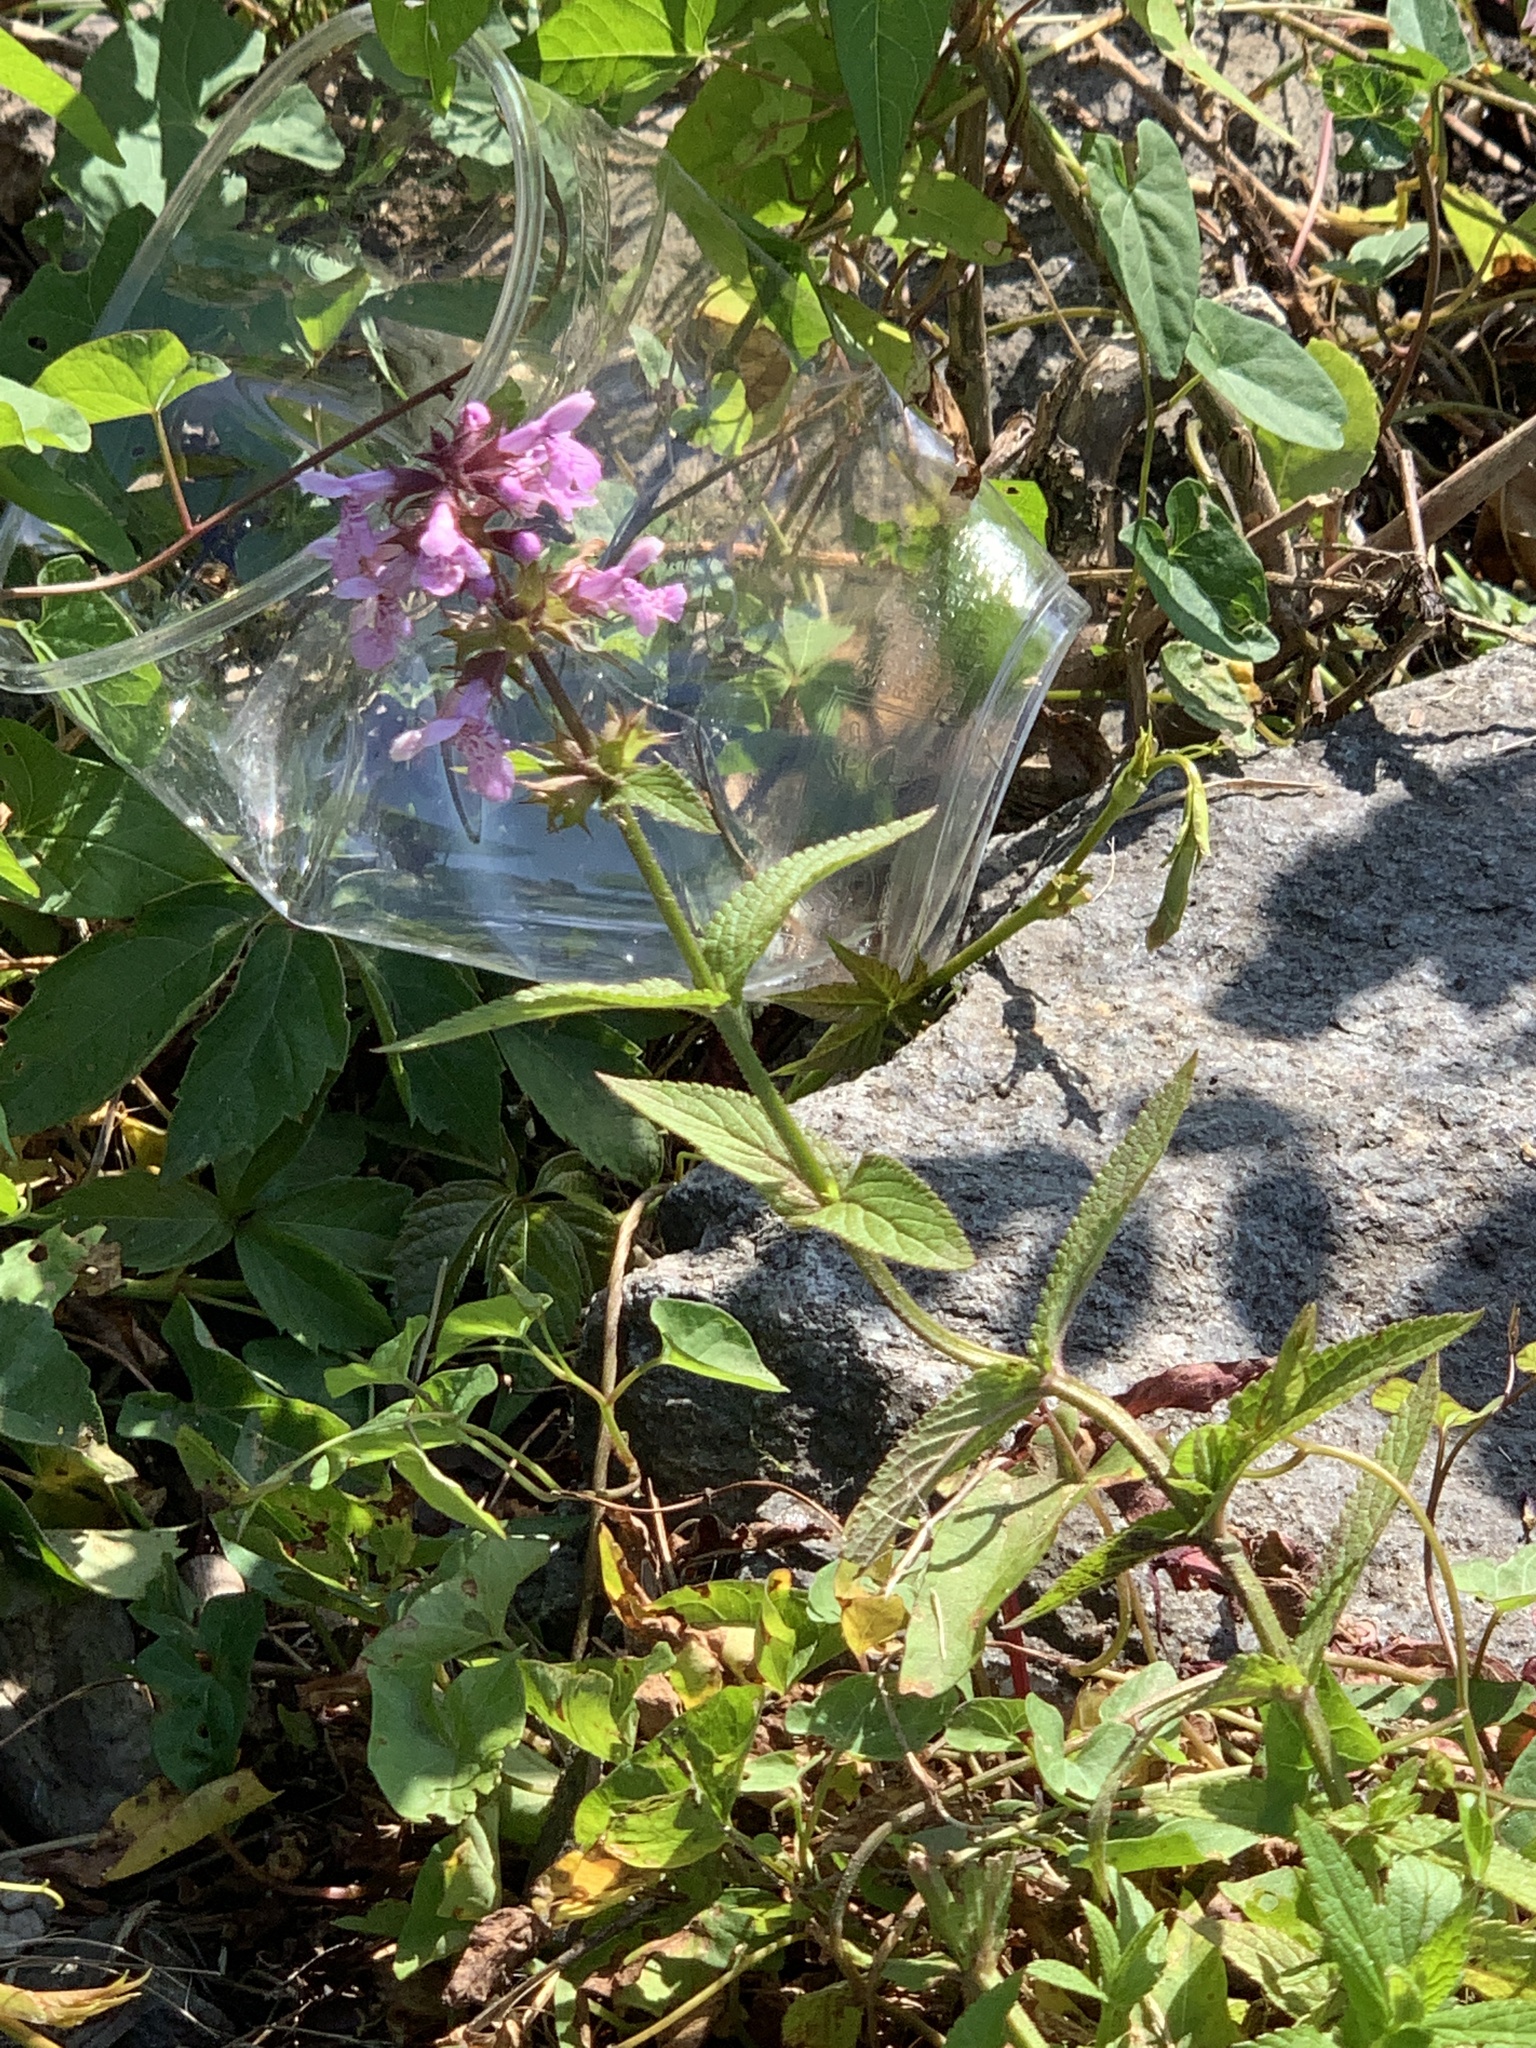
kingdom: Plantae
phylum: Tracheophyta
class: Magnoliopsida
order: Lamiales
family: Lamiaceae
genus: Stachys
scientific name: Stachys palustris
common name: Marsh woundwort
